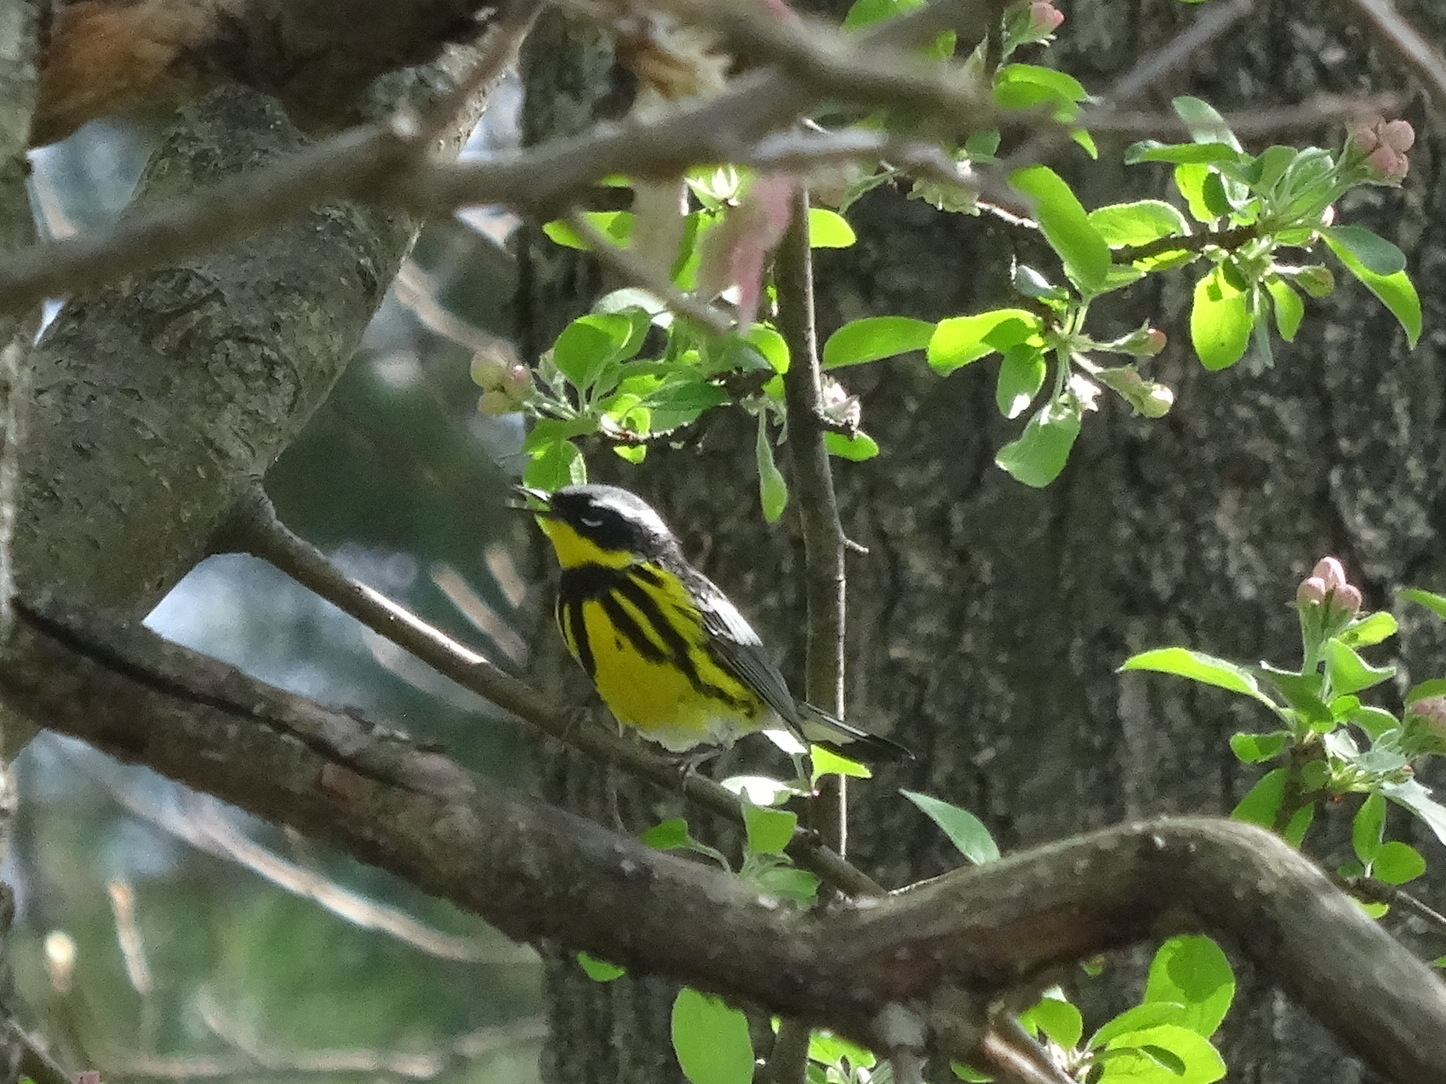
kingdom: Animalia
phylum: Chordata
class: Aves
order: Passeriformes
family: Parulidae
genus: Setophaga
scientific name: Setophaga magnolia
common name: Magnolia warbler
